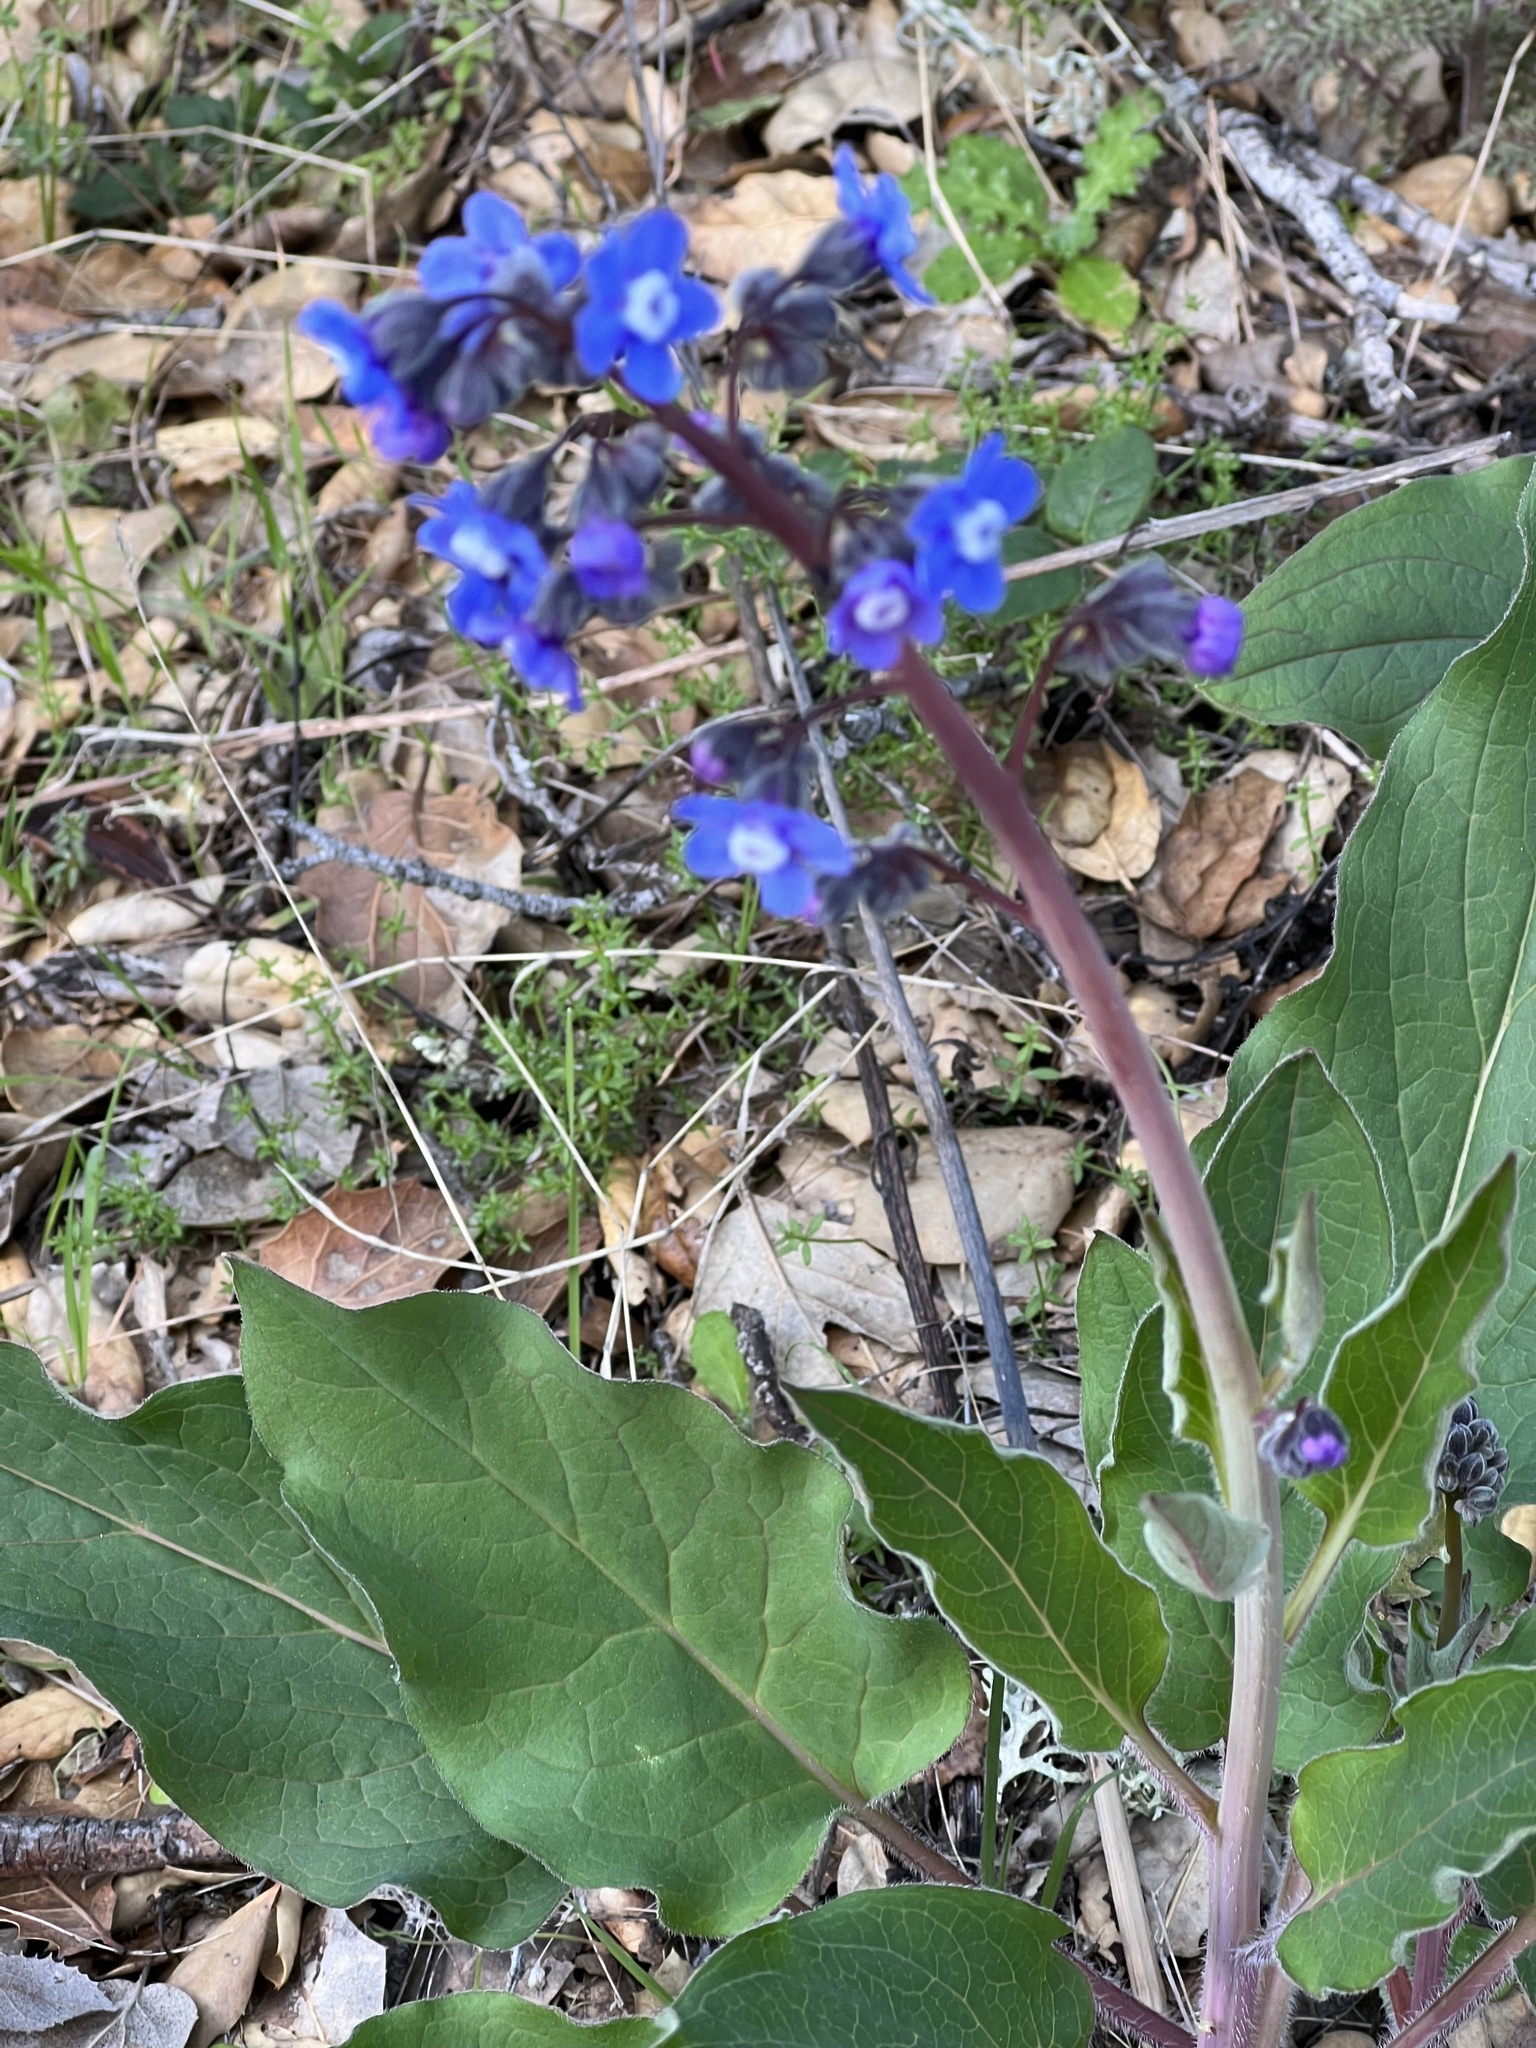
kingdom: Plantae
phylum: Tracheophyta
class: Magnoliopsida
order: Boraginales
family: Boraginaceae
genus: Adelinia
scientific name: Adelinia grande
